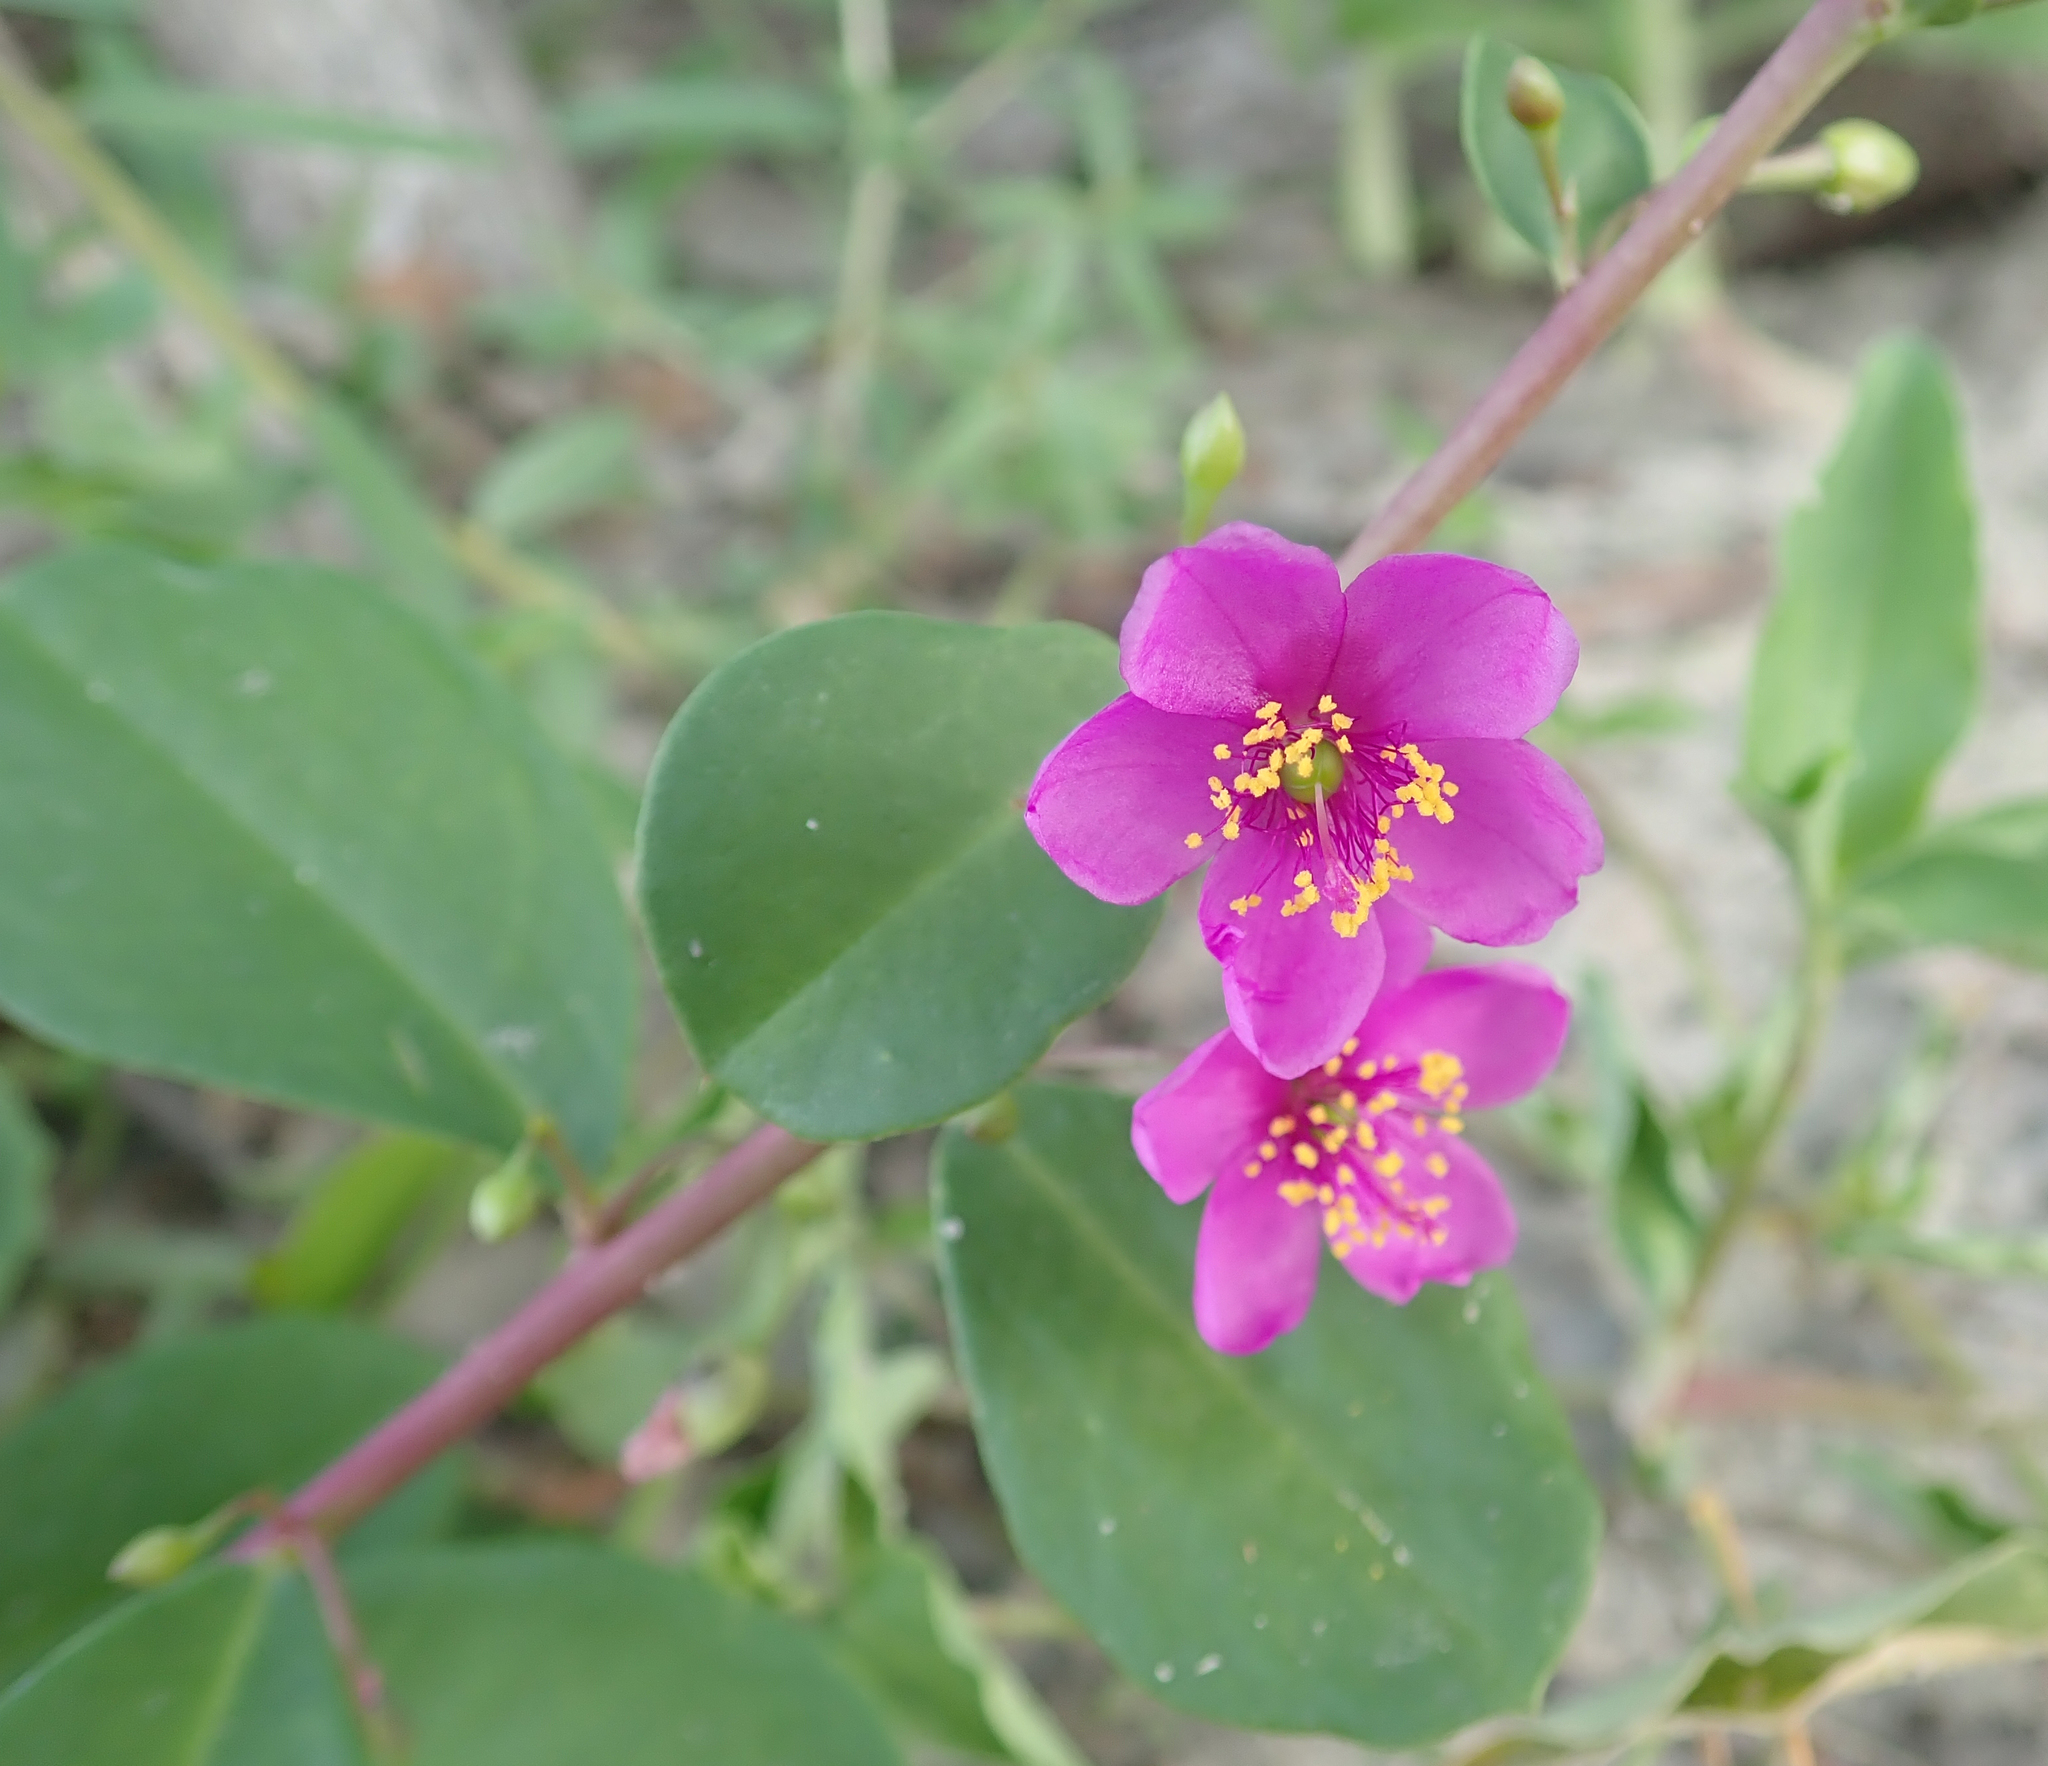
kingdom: Plantae
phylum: Tracheophyta
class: Magnoliopsida
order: Caryophyllales
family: Talinaceae
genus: Talinum
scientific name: Talinum portulacifolium
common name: Flameflower
